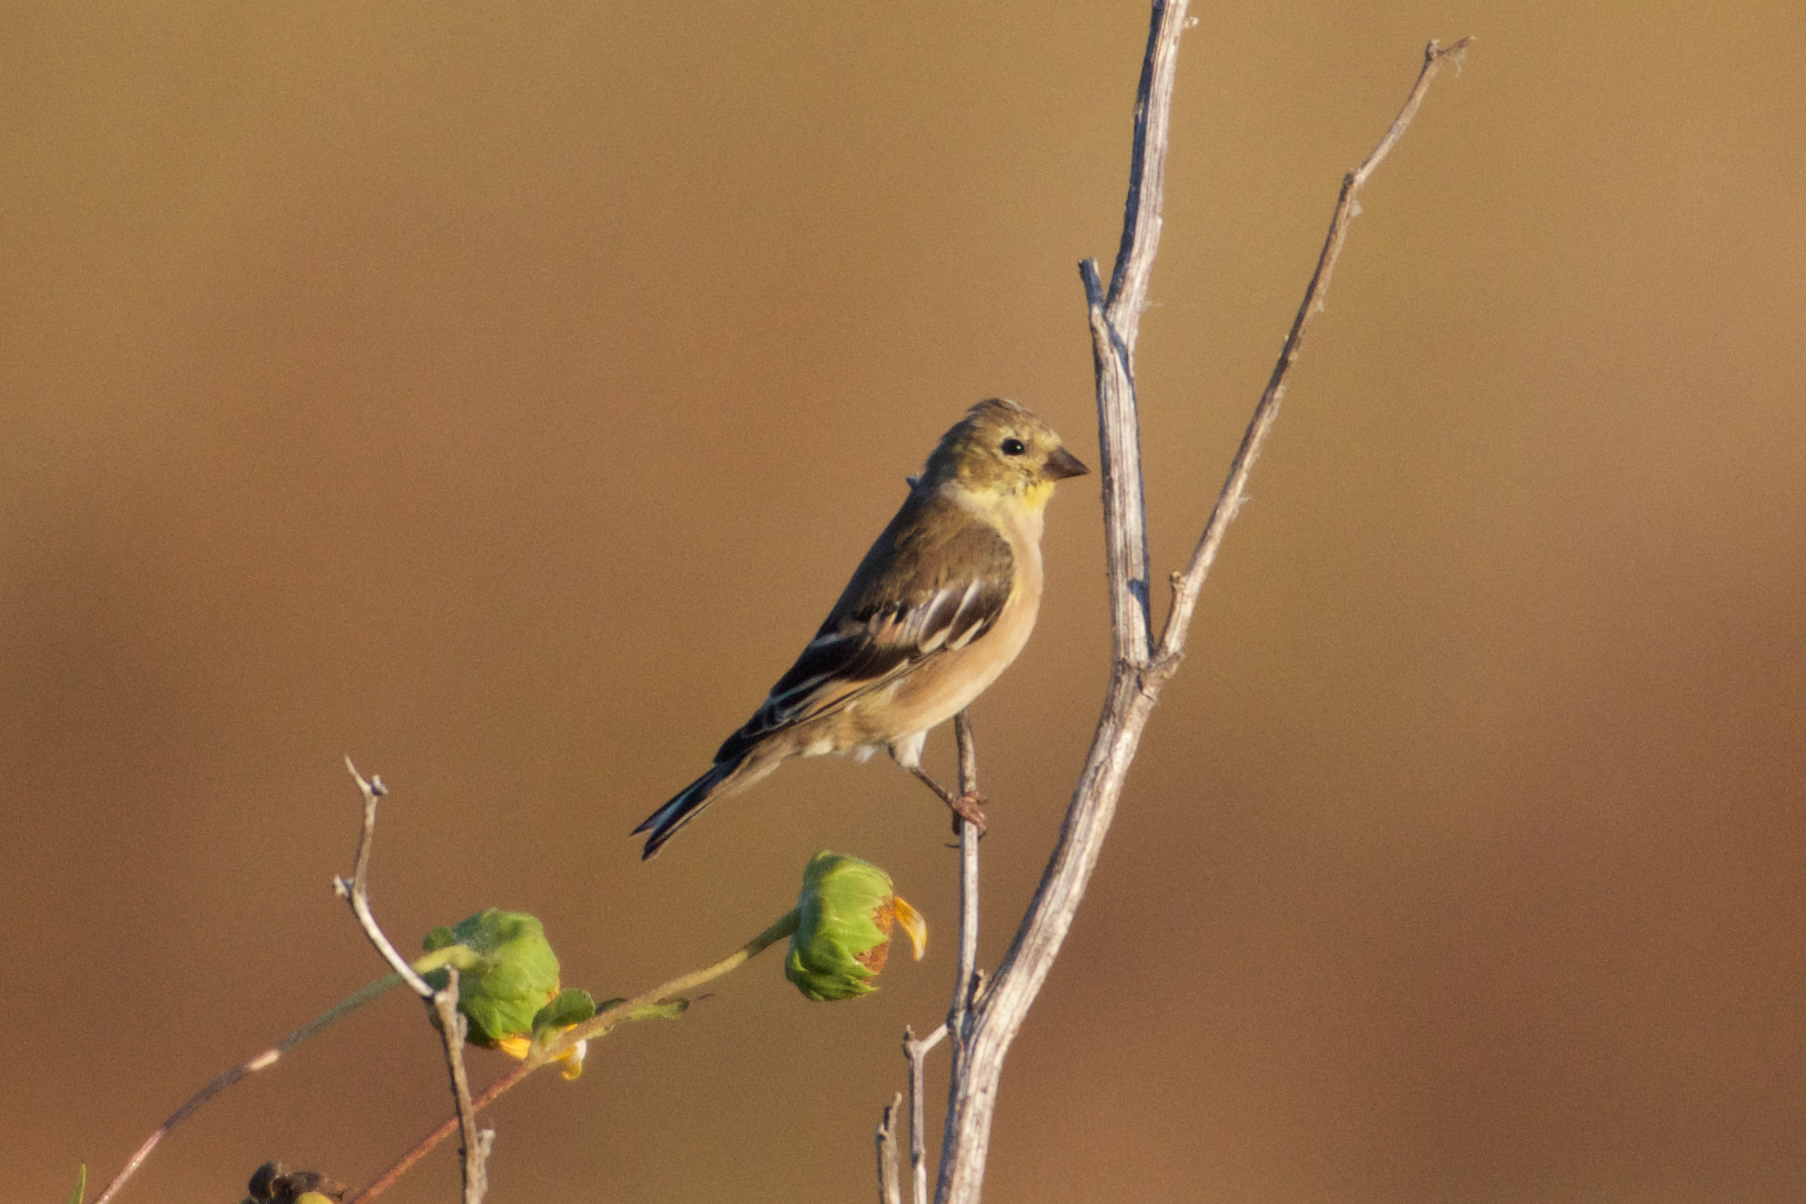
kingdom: Animalia
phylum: Chordata
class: Aves
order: Passeriformes
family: Fringillidae
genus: Spinus
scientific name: Spinus tristis
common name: American goldfinch
